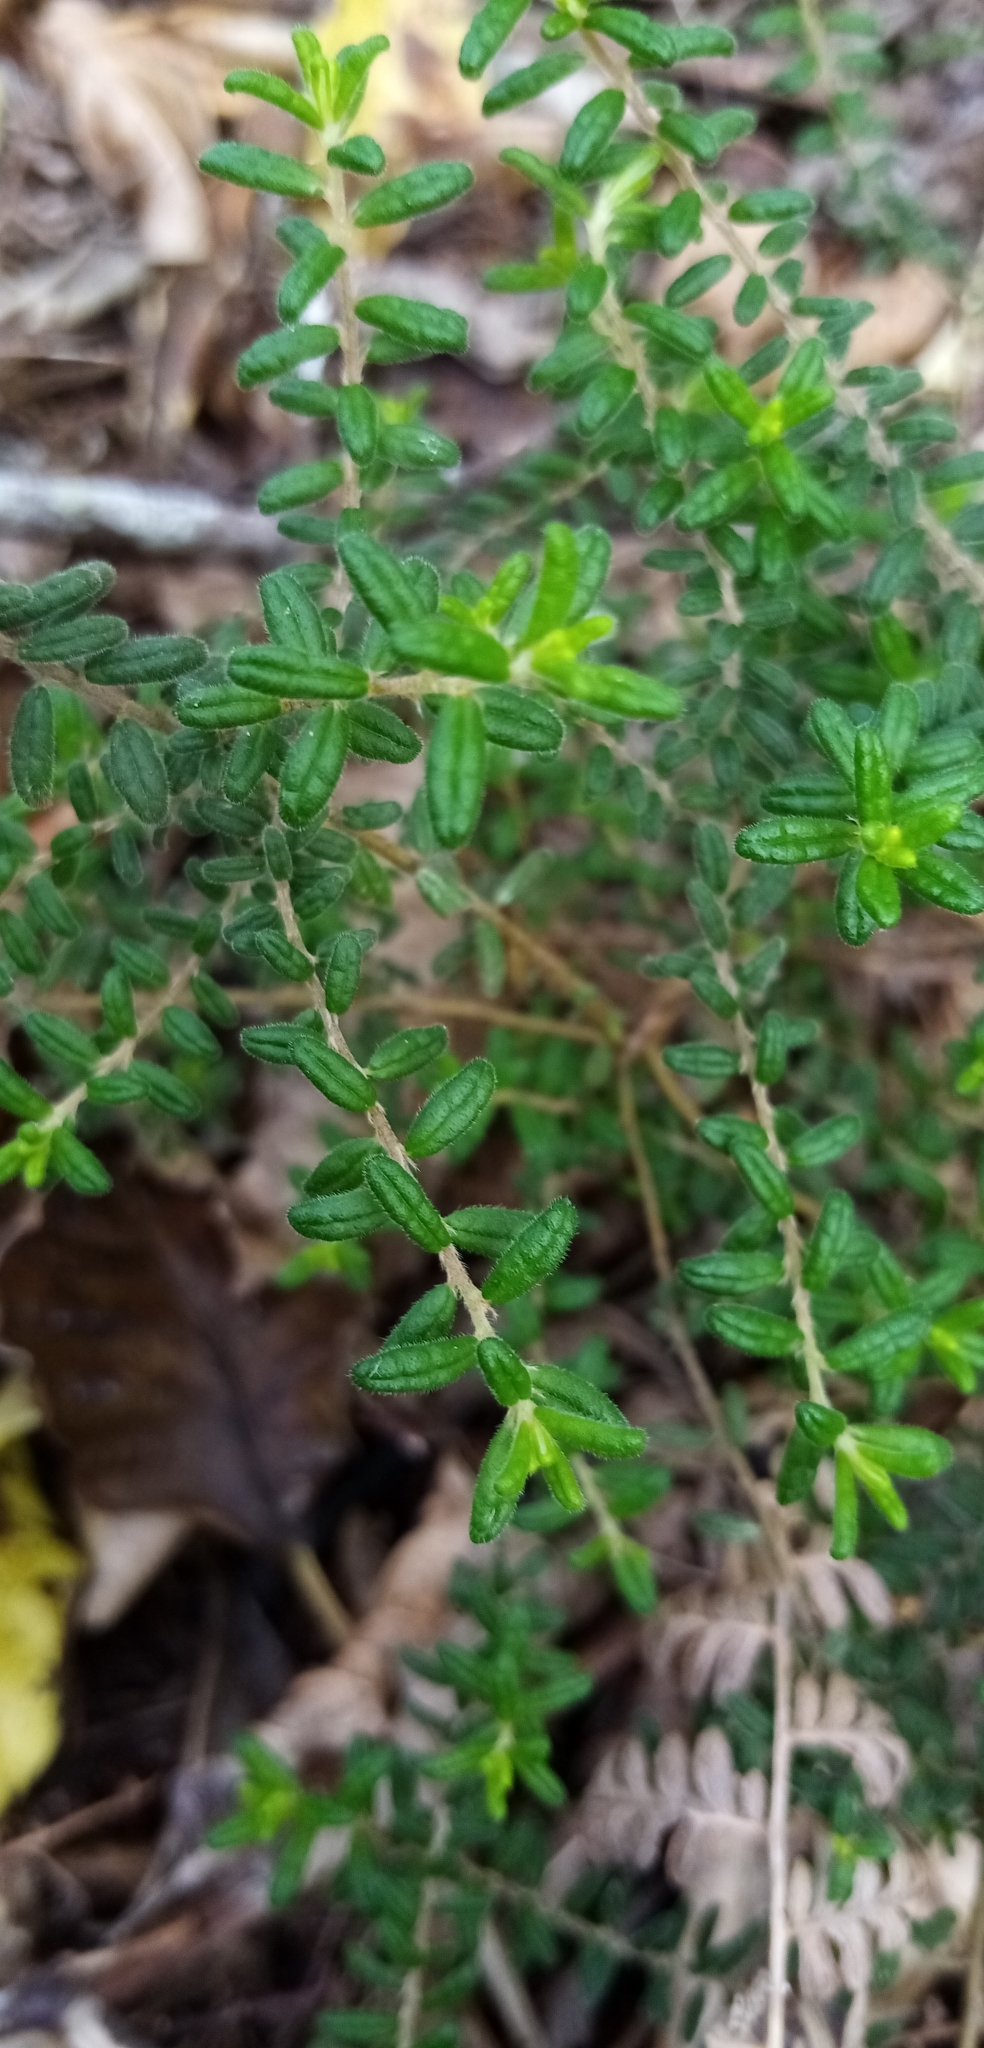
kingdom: Plantae
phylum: Tracheophyta
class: Magnoliopsida
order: Rosales
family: Rhamnaceae
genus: Pomaderris
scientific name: Pomaderris amoena
